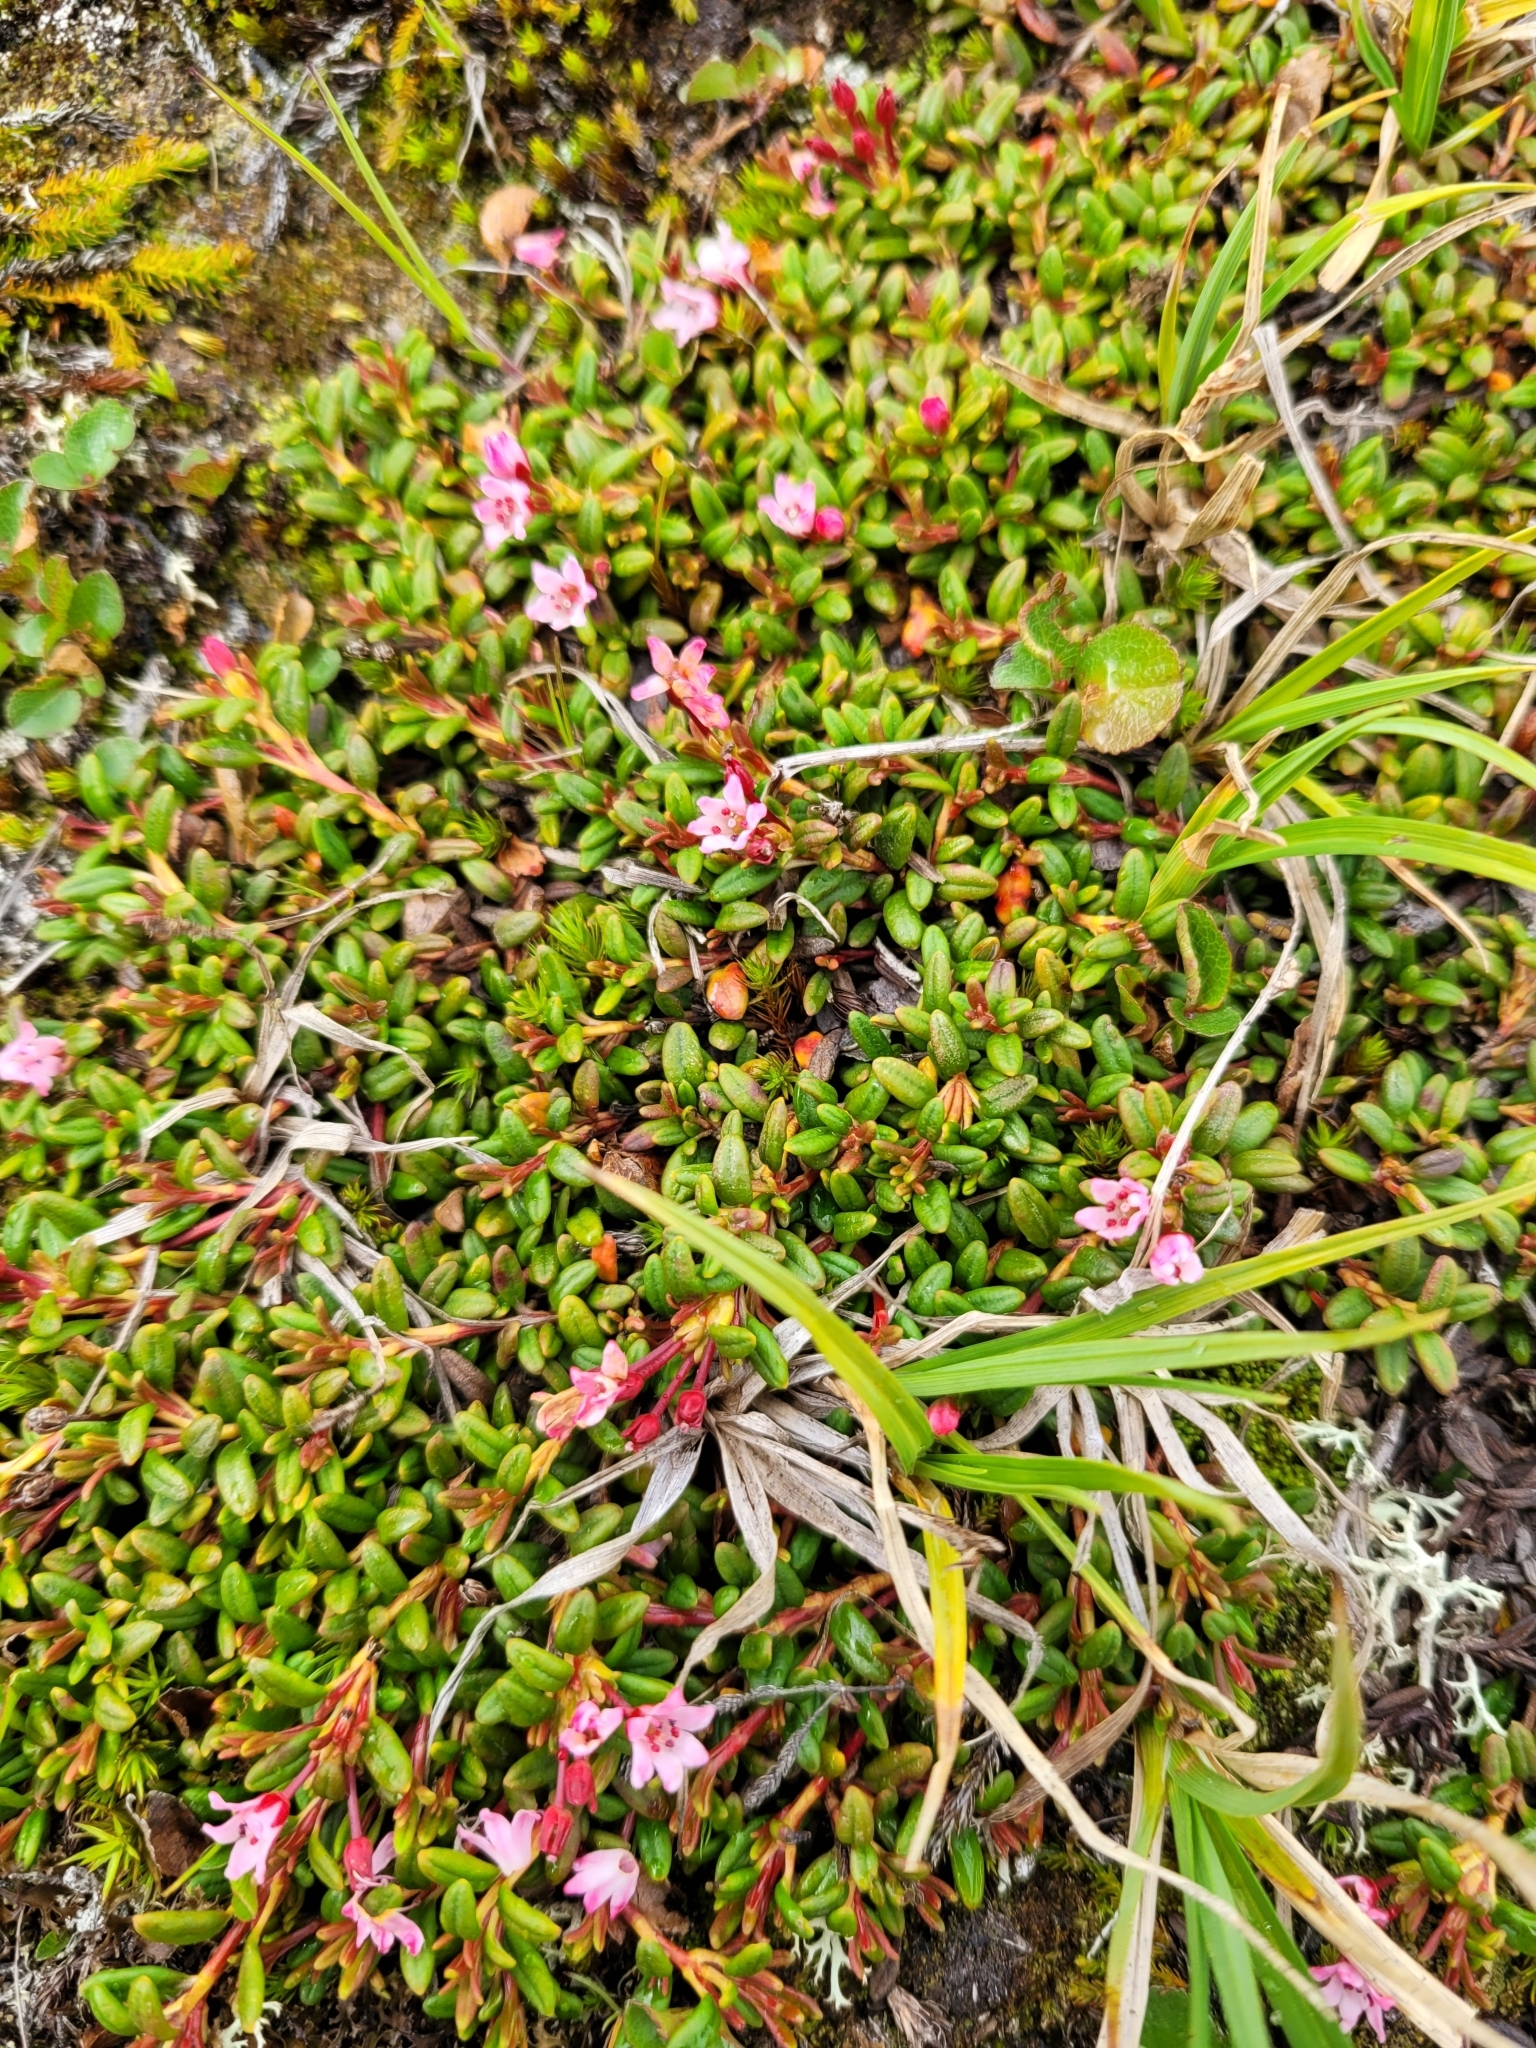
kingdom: Plantae
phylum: Tracheophyta
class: Magnoliopsida
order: Ericales
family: Ericaceae
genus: Kalmia
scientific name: Kalmia procumbens
